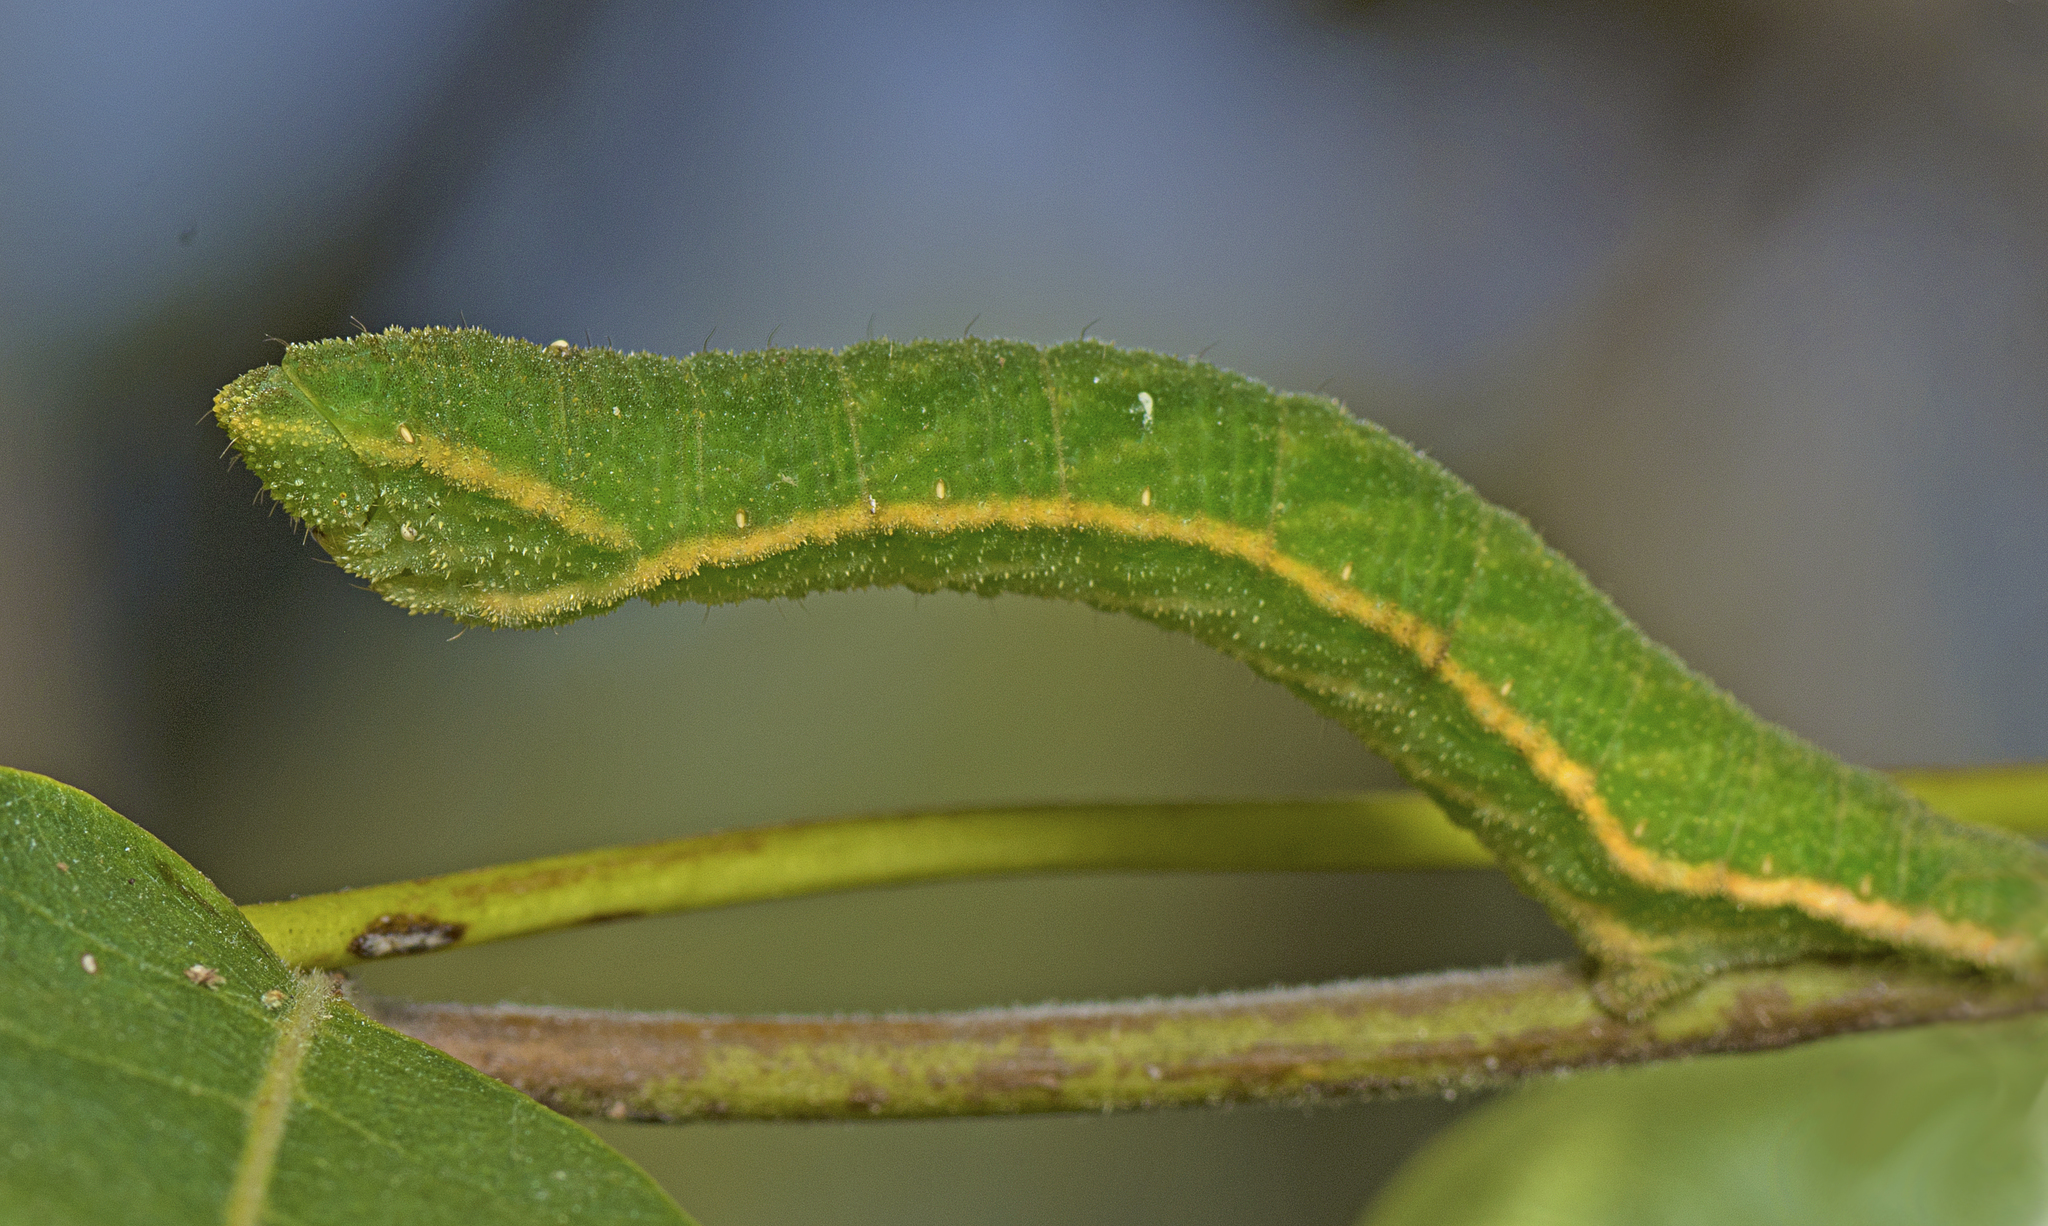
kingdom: Animalia
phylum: Arthropoda
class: Insecta
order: Lepidoptera
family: Geometridae
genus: Pingasa
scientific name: Pingasa chlora
